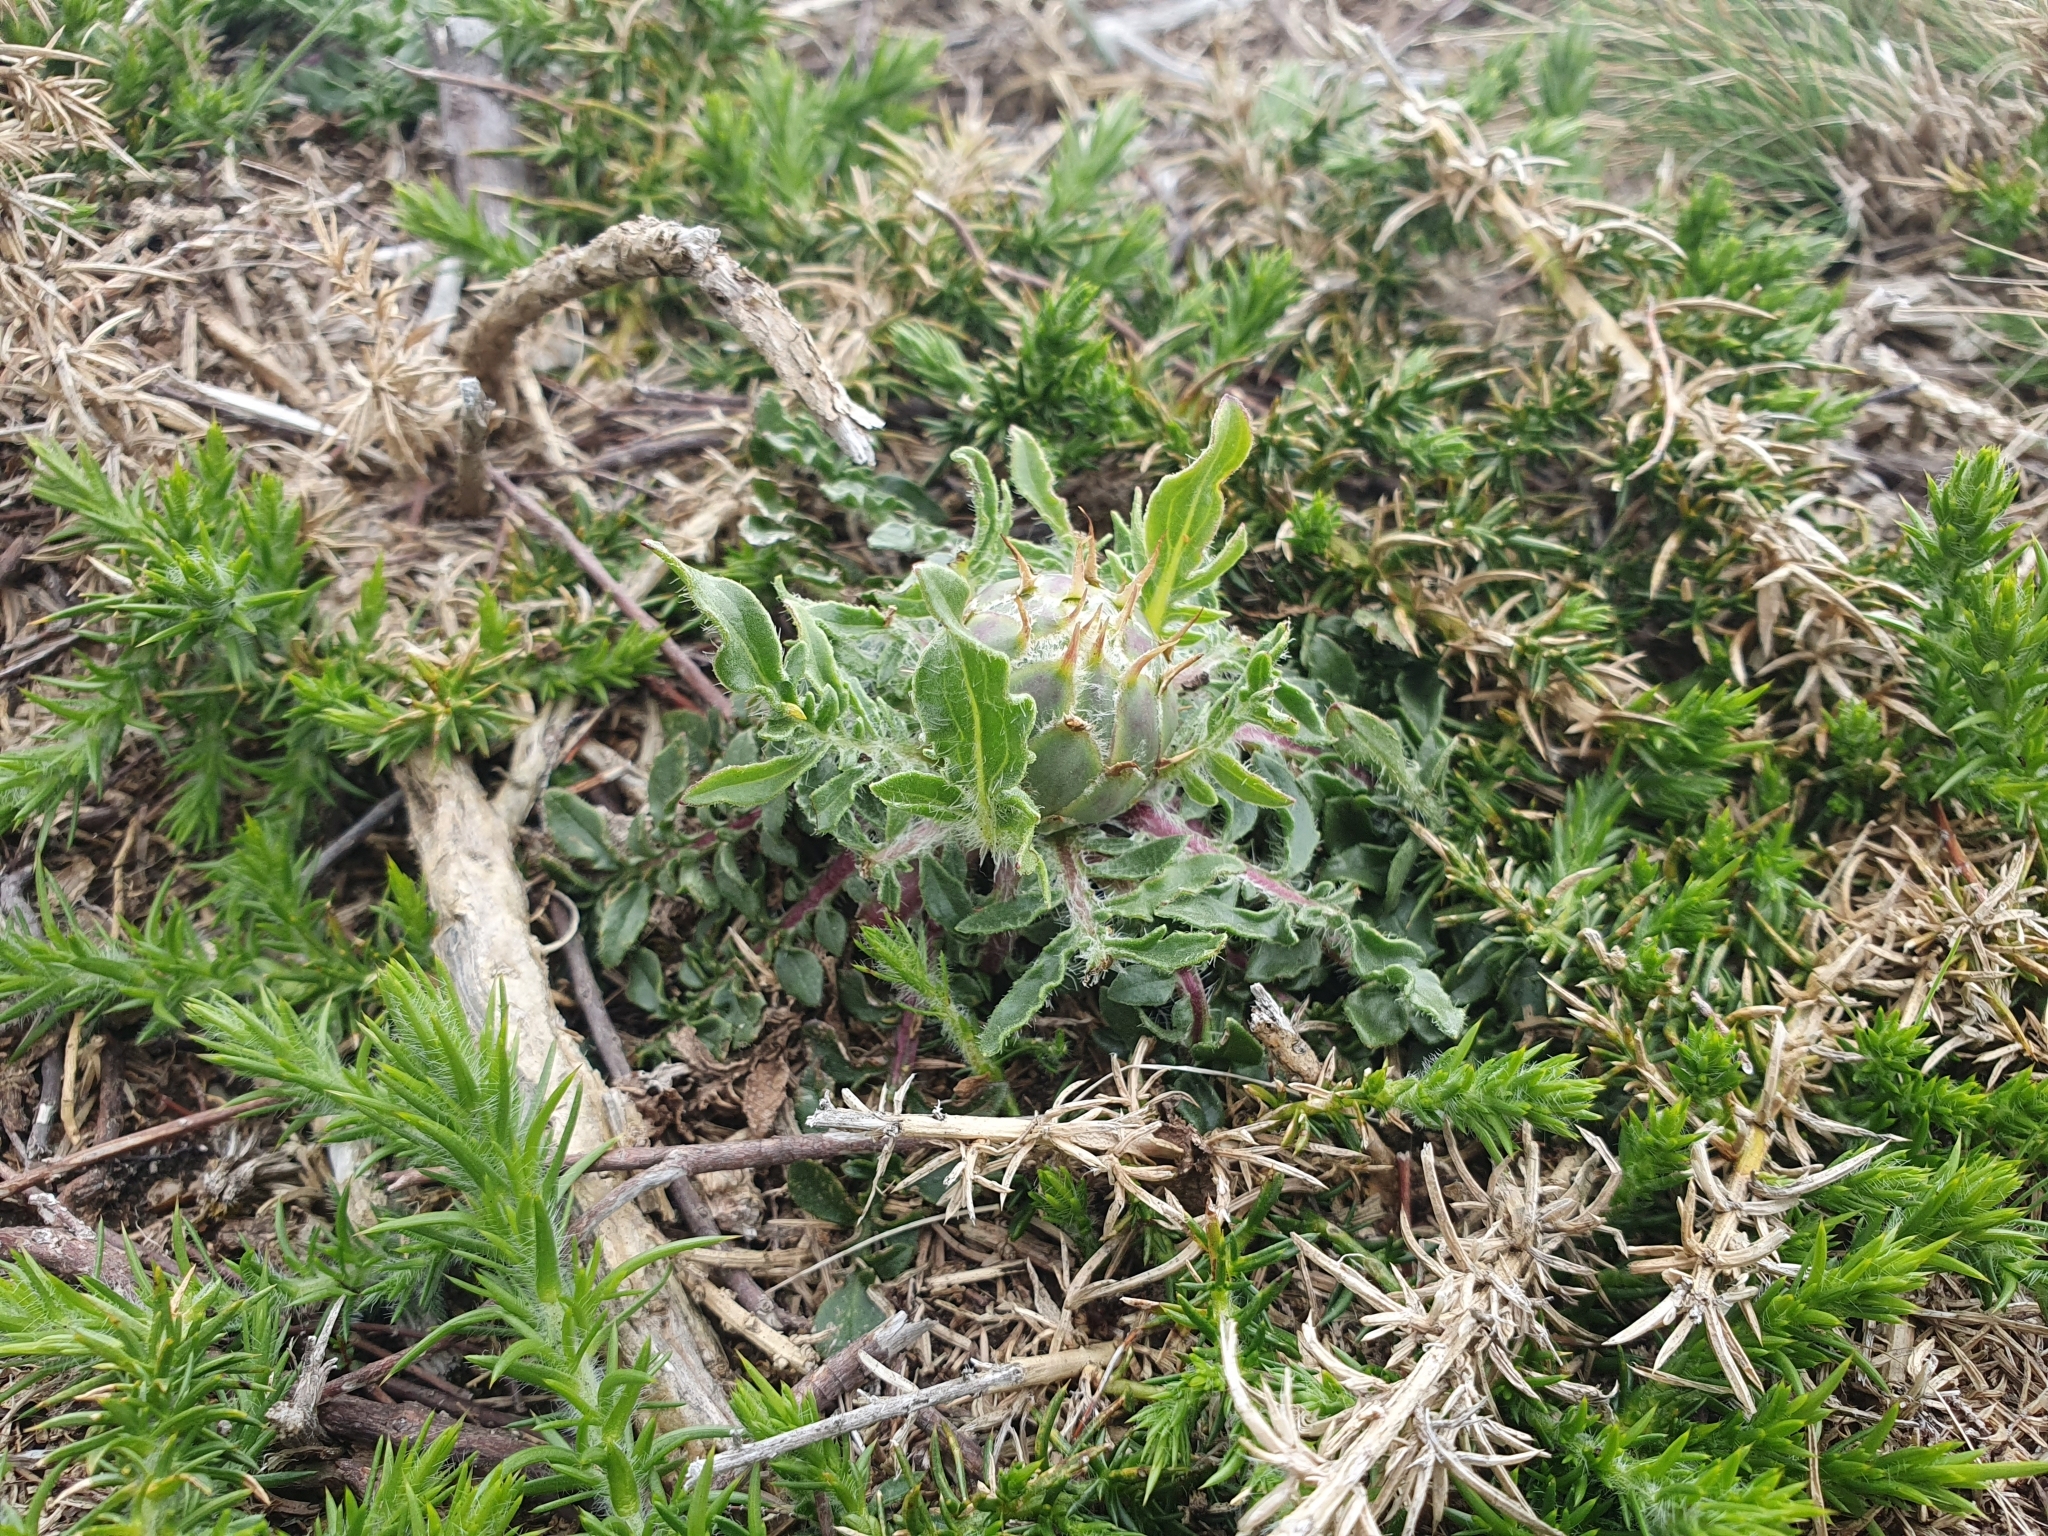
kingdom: Plantae
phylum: Tracheophyta
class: Magnoliopsida
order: Asterales
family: Asteraceae
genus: Centaurea
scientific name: Centaurea ultreiae
